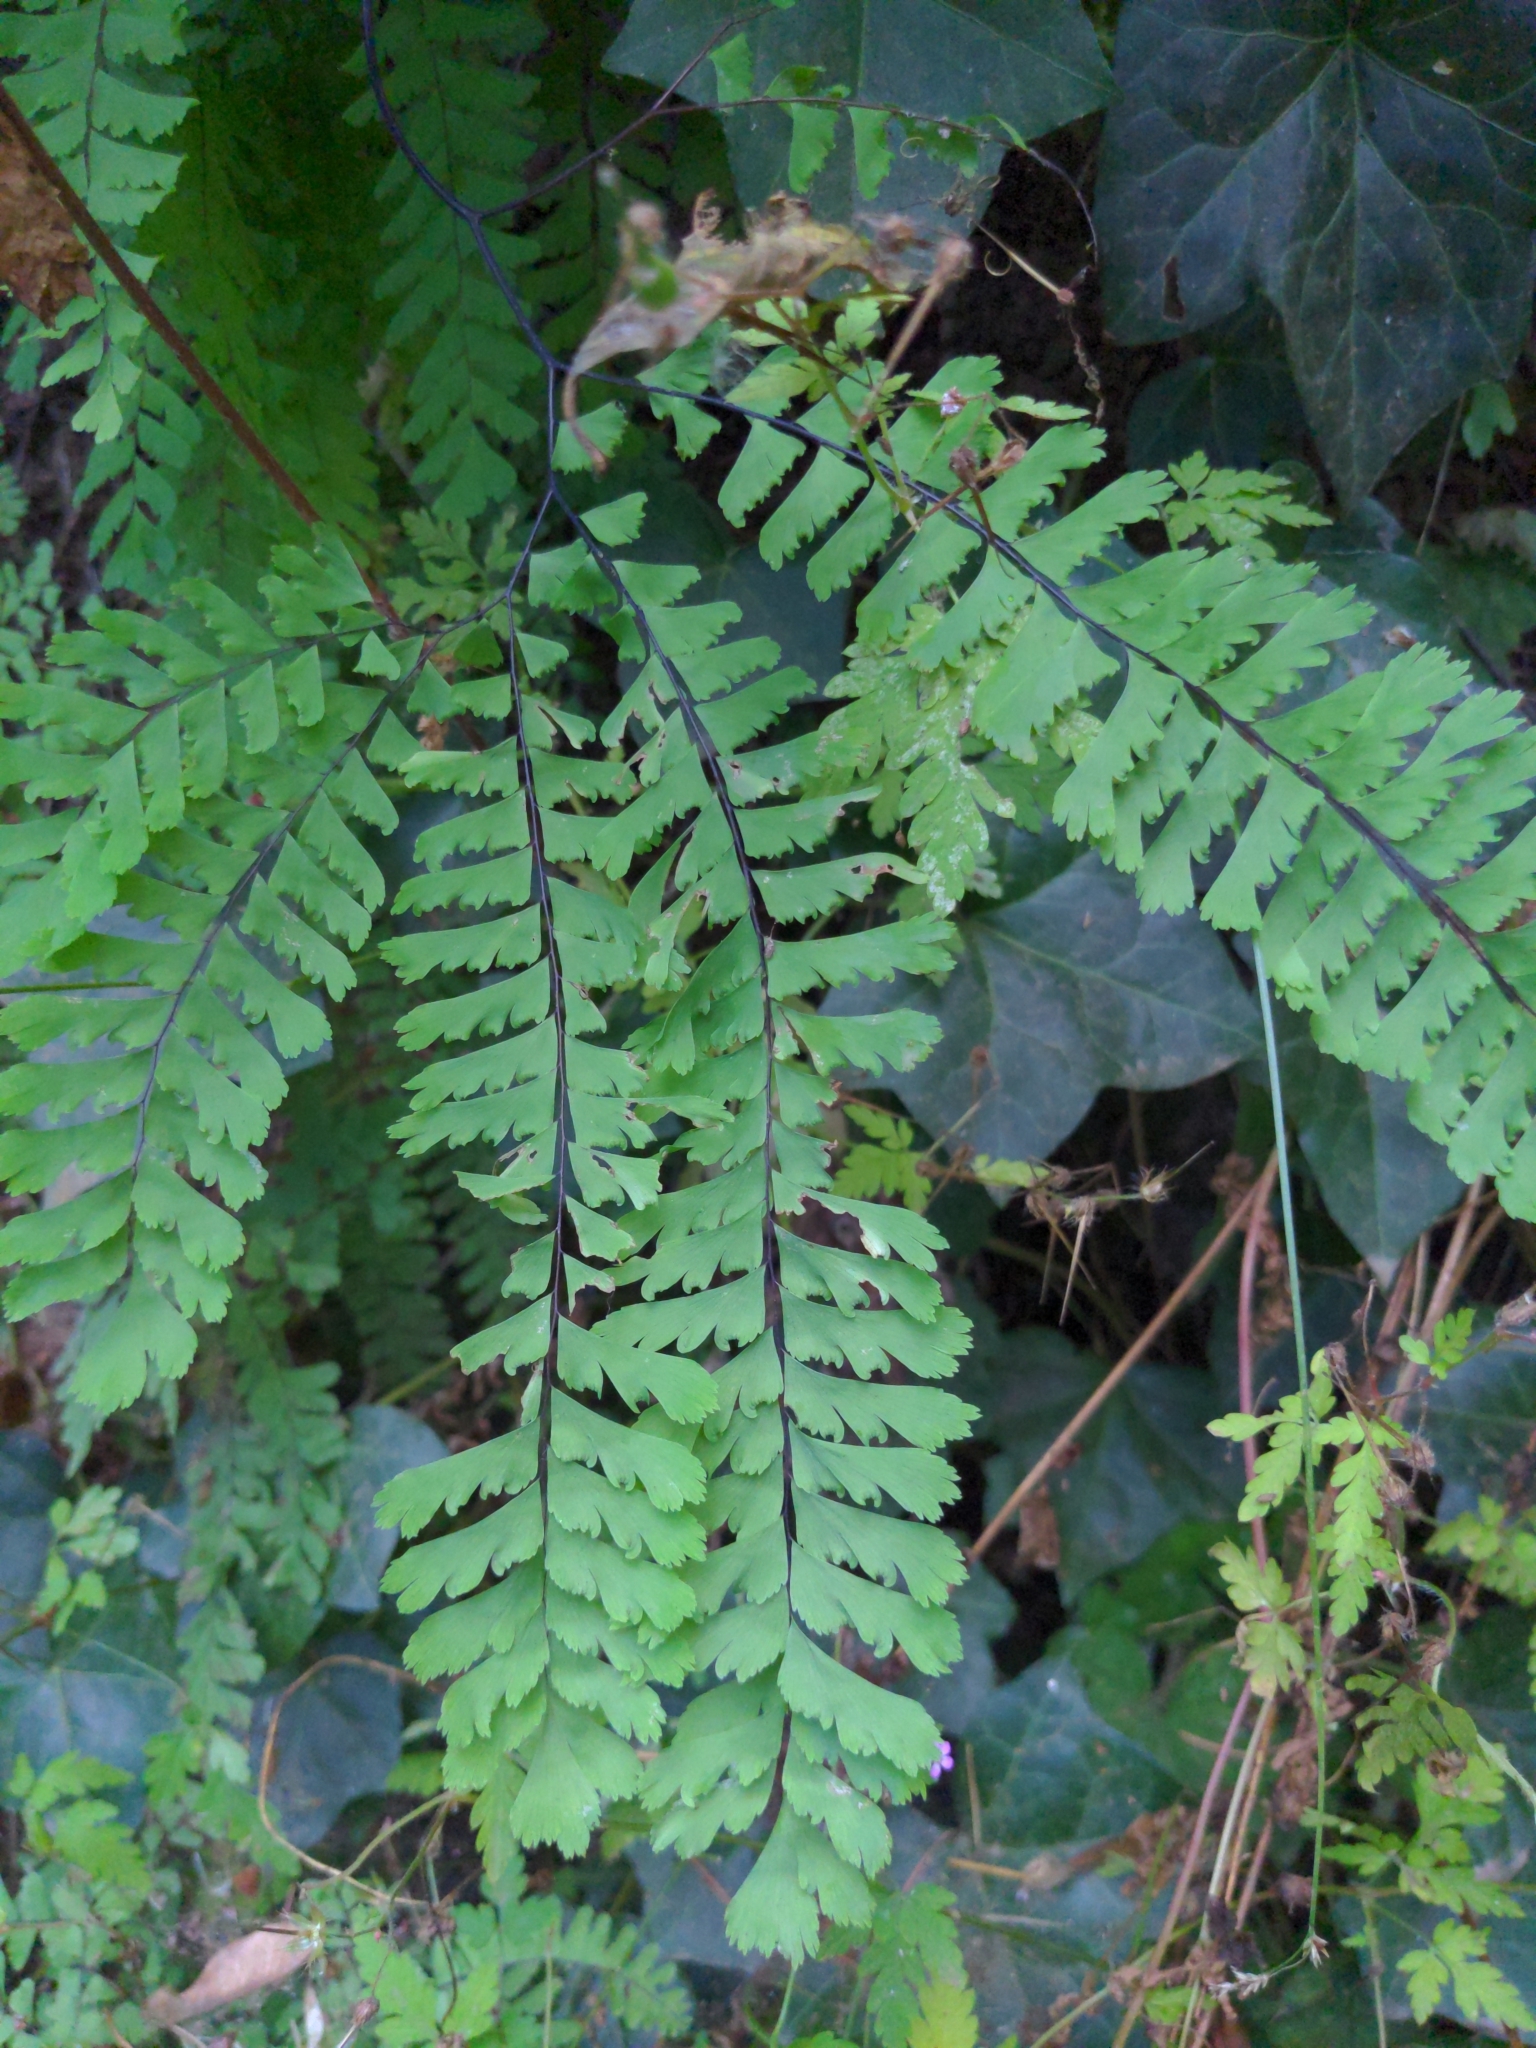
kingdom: Plantae
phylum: Tracheophyta
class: Polypodiopsida
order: Polypodiales
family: Pteridaceae
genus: Adiantum
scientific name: Adiantum aleuticum
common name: Aleutian maidenhair fern
